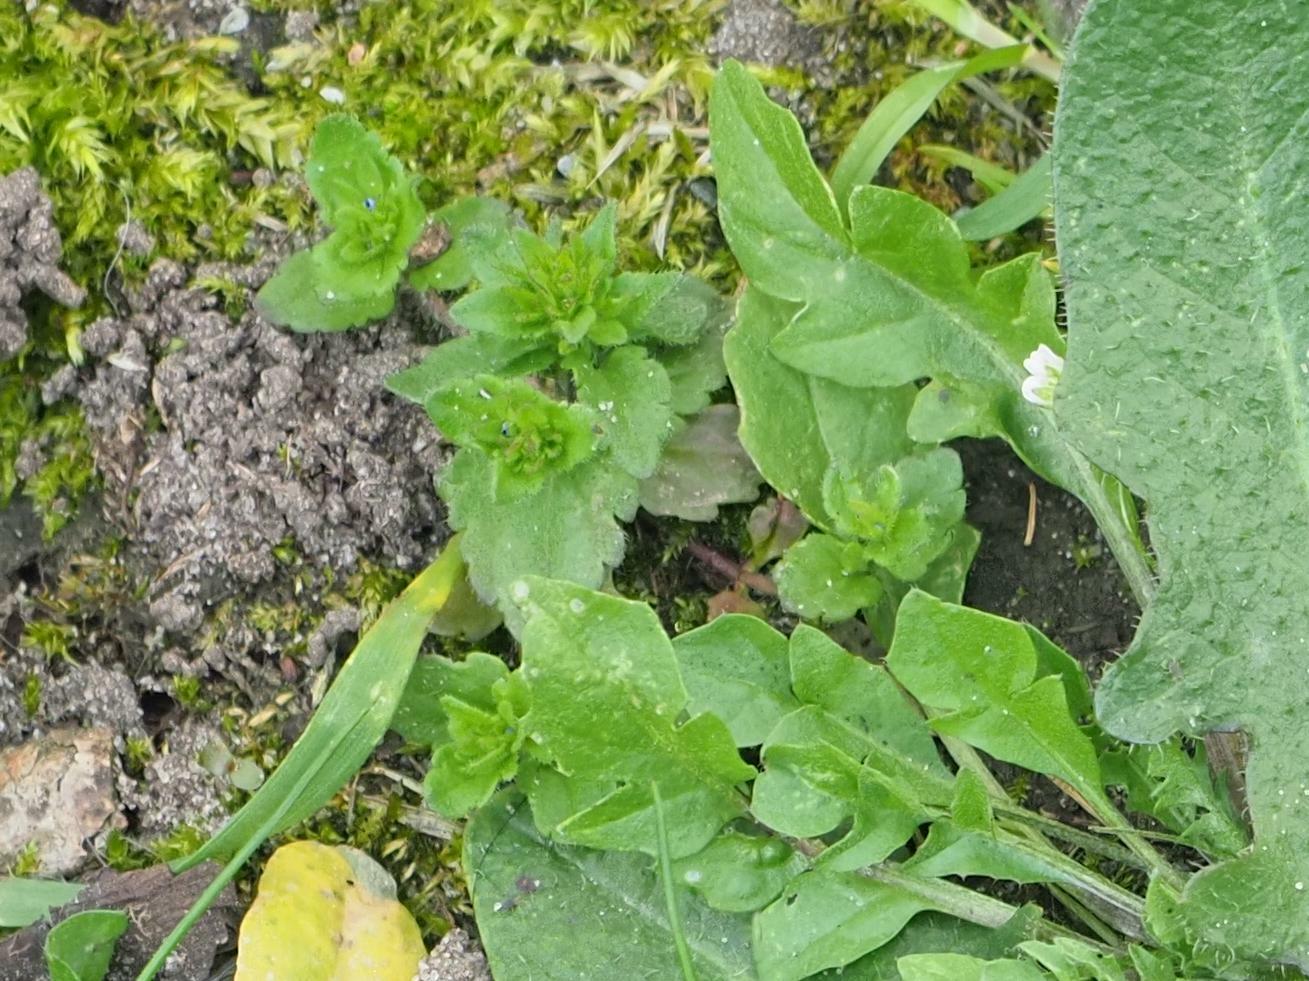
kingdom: Plantae
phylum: Tracheophyta
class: Magnoliopsida
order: Lamiales
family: Plantaginaceae
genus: Veronica
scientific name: Veronica arvensis
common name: Corn speedwell
